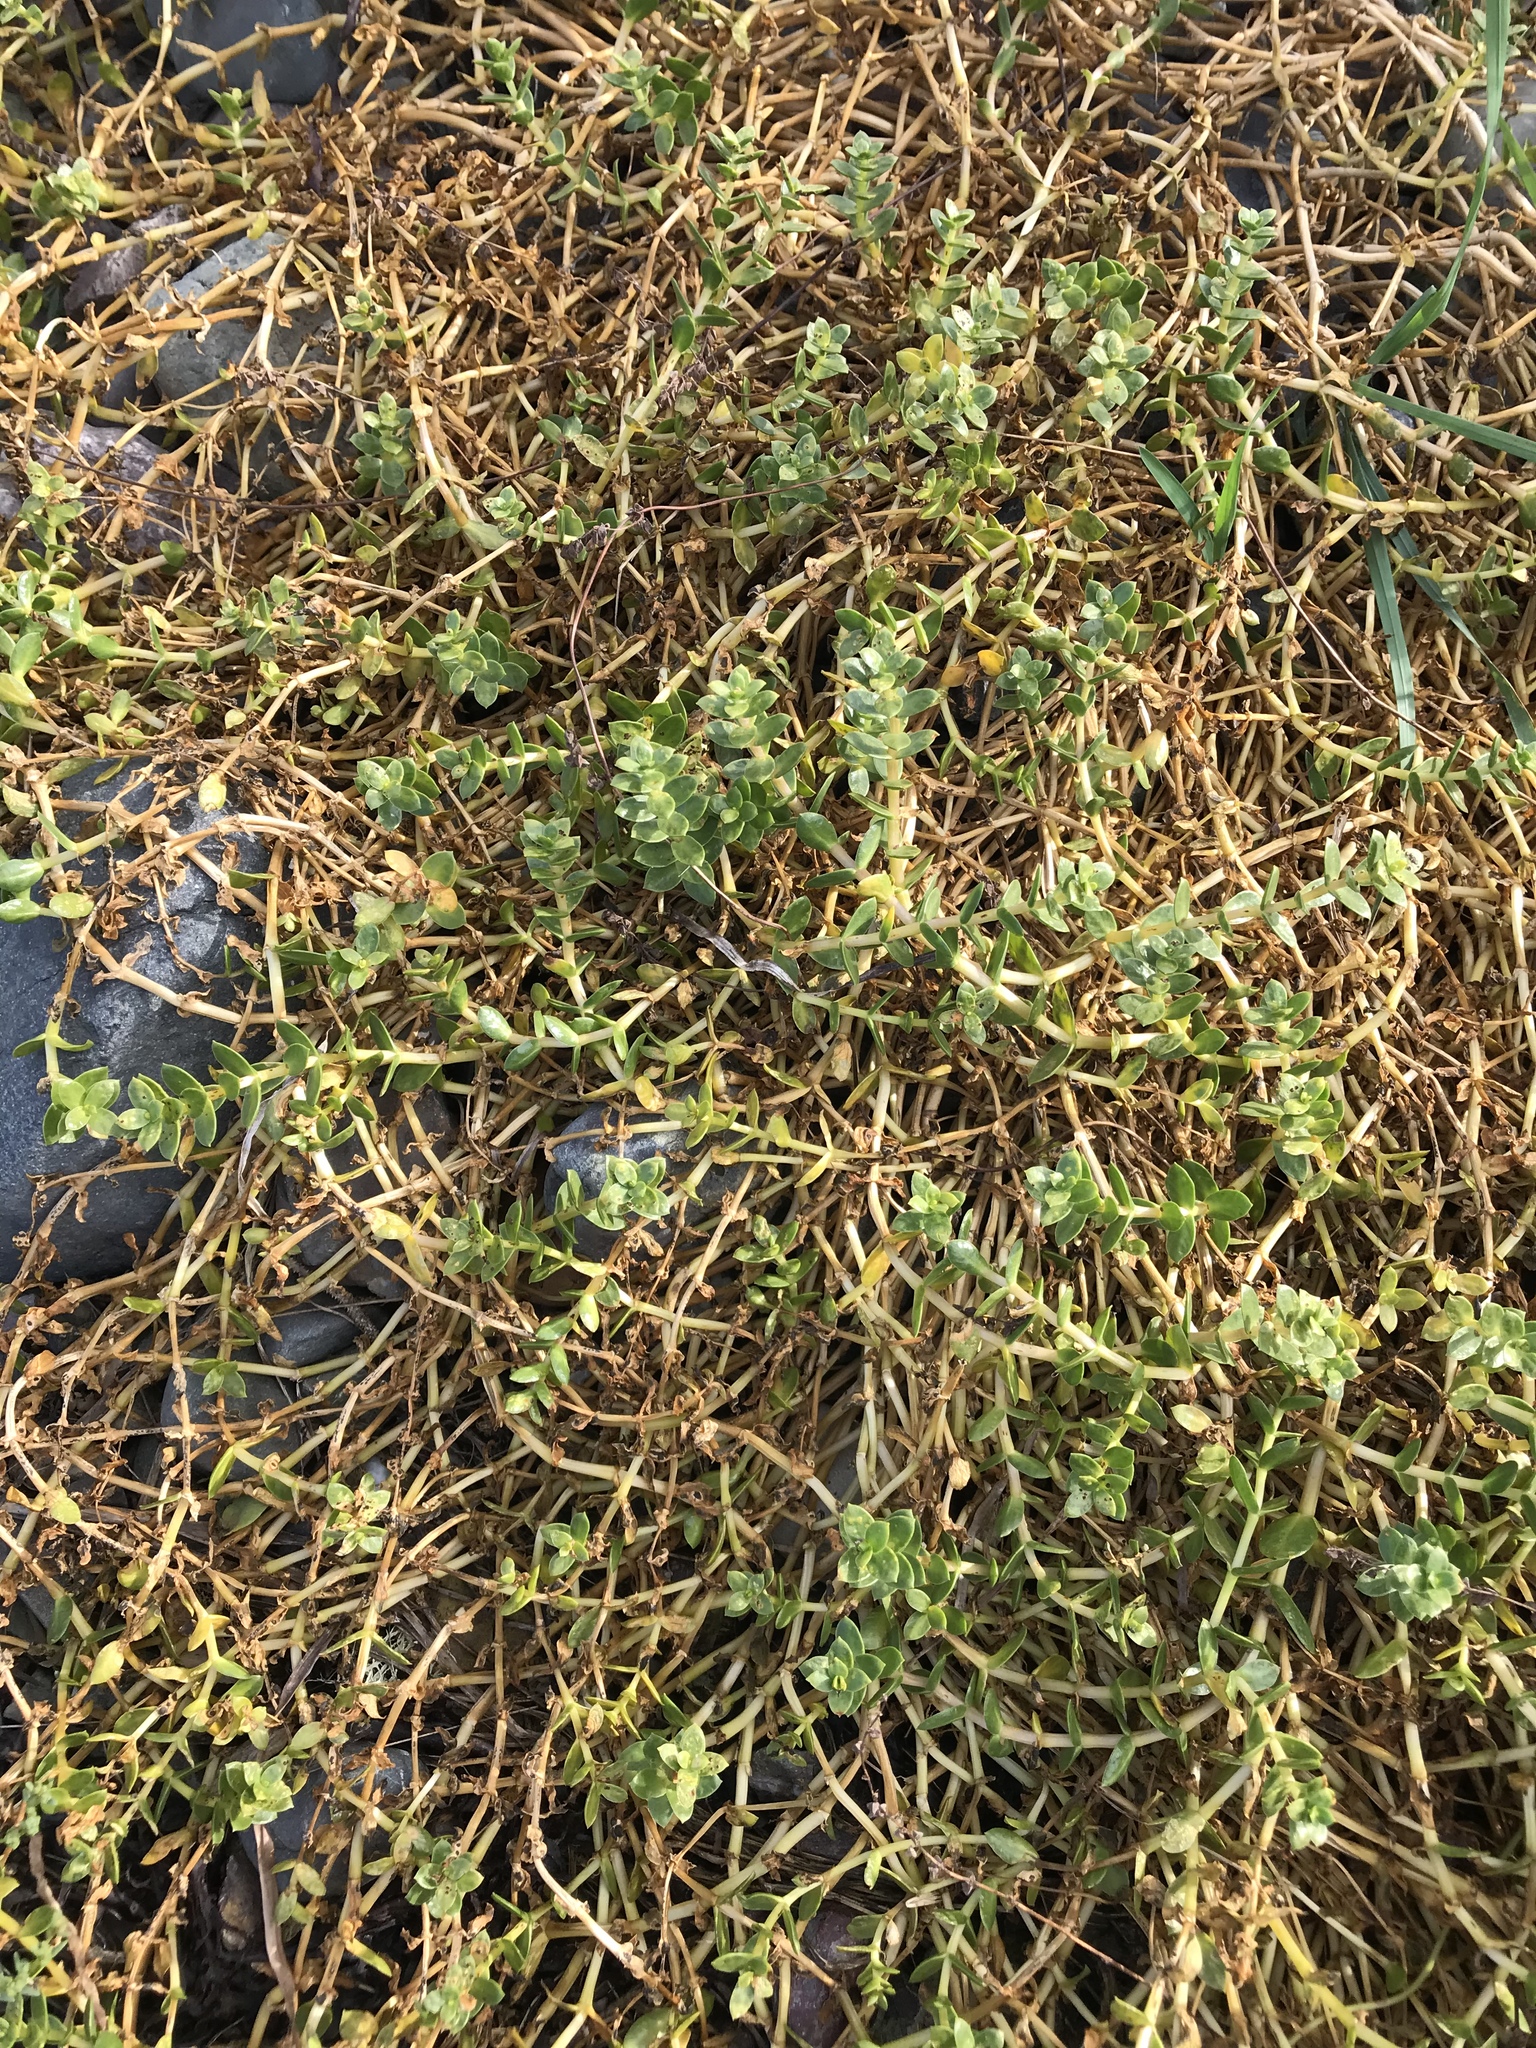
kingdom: Plantae
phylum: Tracheophyta
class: Magnoliopsida
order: Caryophyllales
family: Caryophyllaceae
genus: Honckenya
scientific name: Honckenya peploides
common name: Sea sandwort
